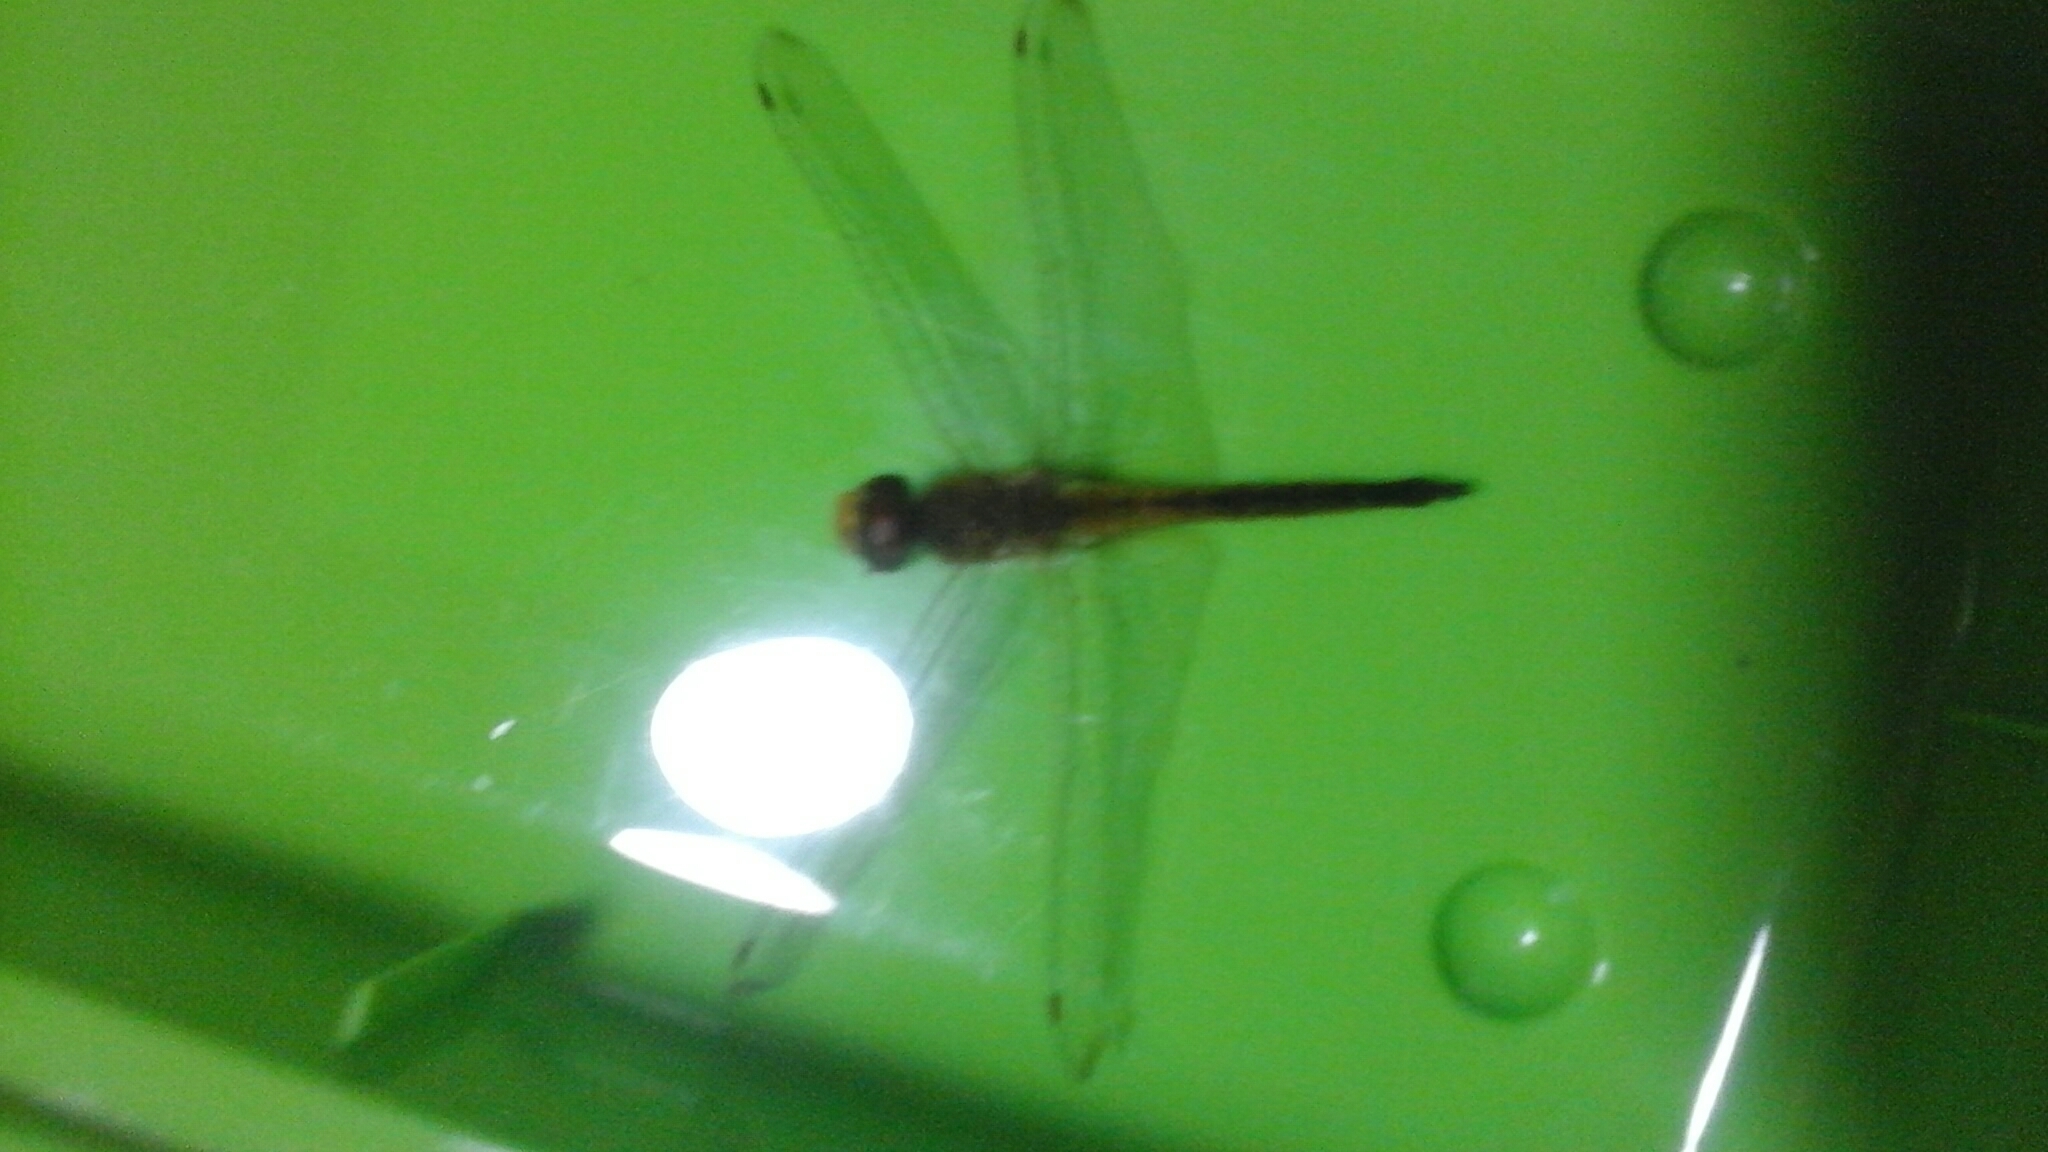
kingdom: Animalia
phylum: Arthropoda
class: Insecta
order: Odonata
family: Libellulidae
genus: Pantala
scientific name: Pantala flavescens
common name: Wandering glider
